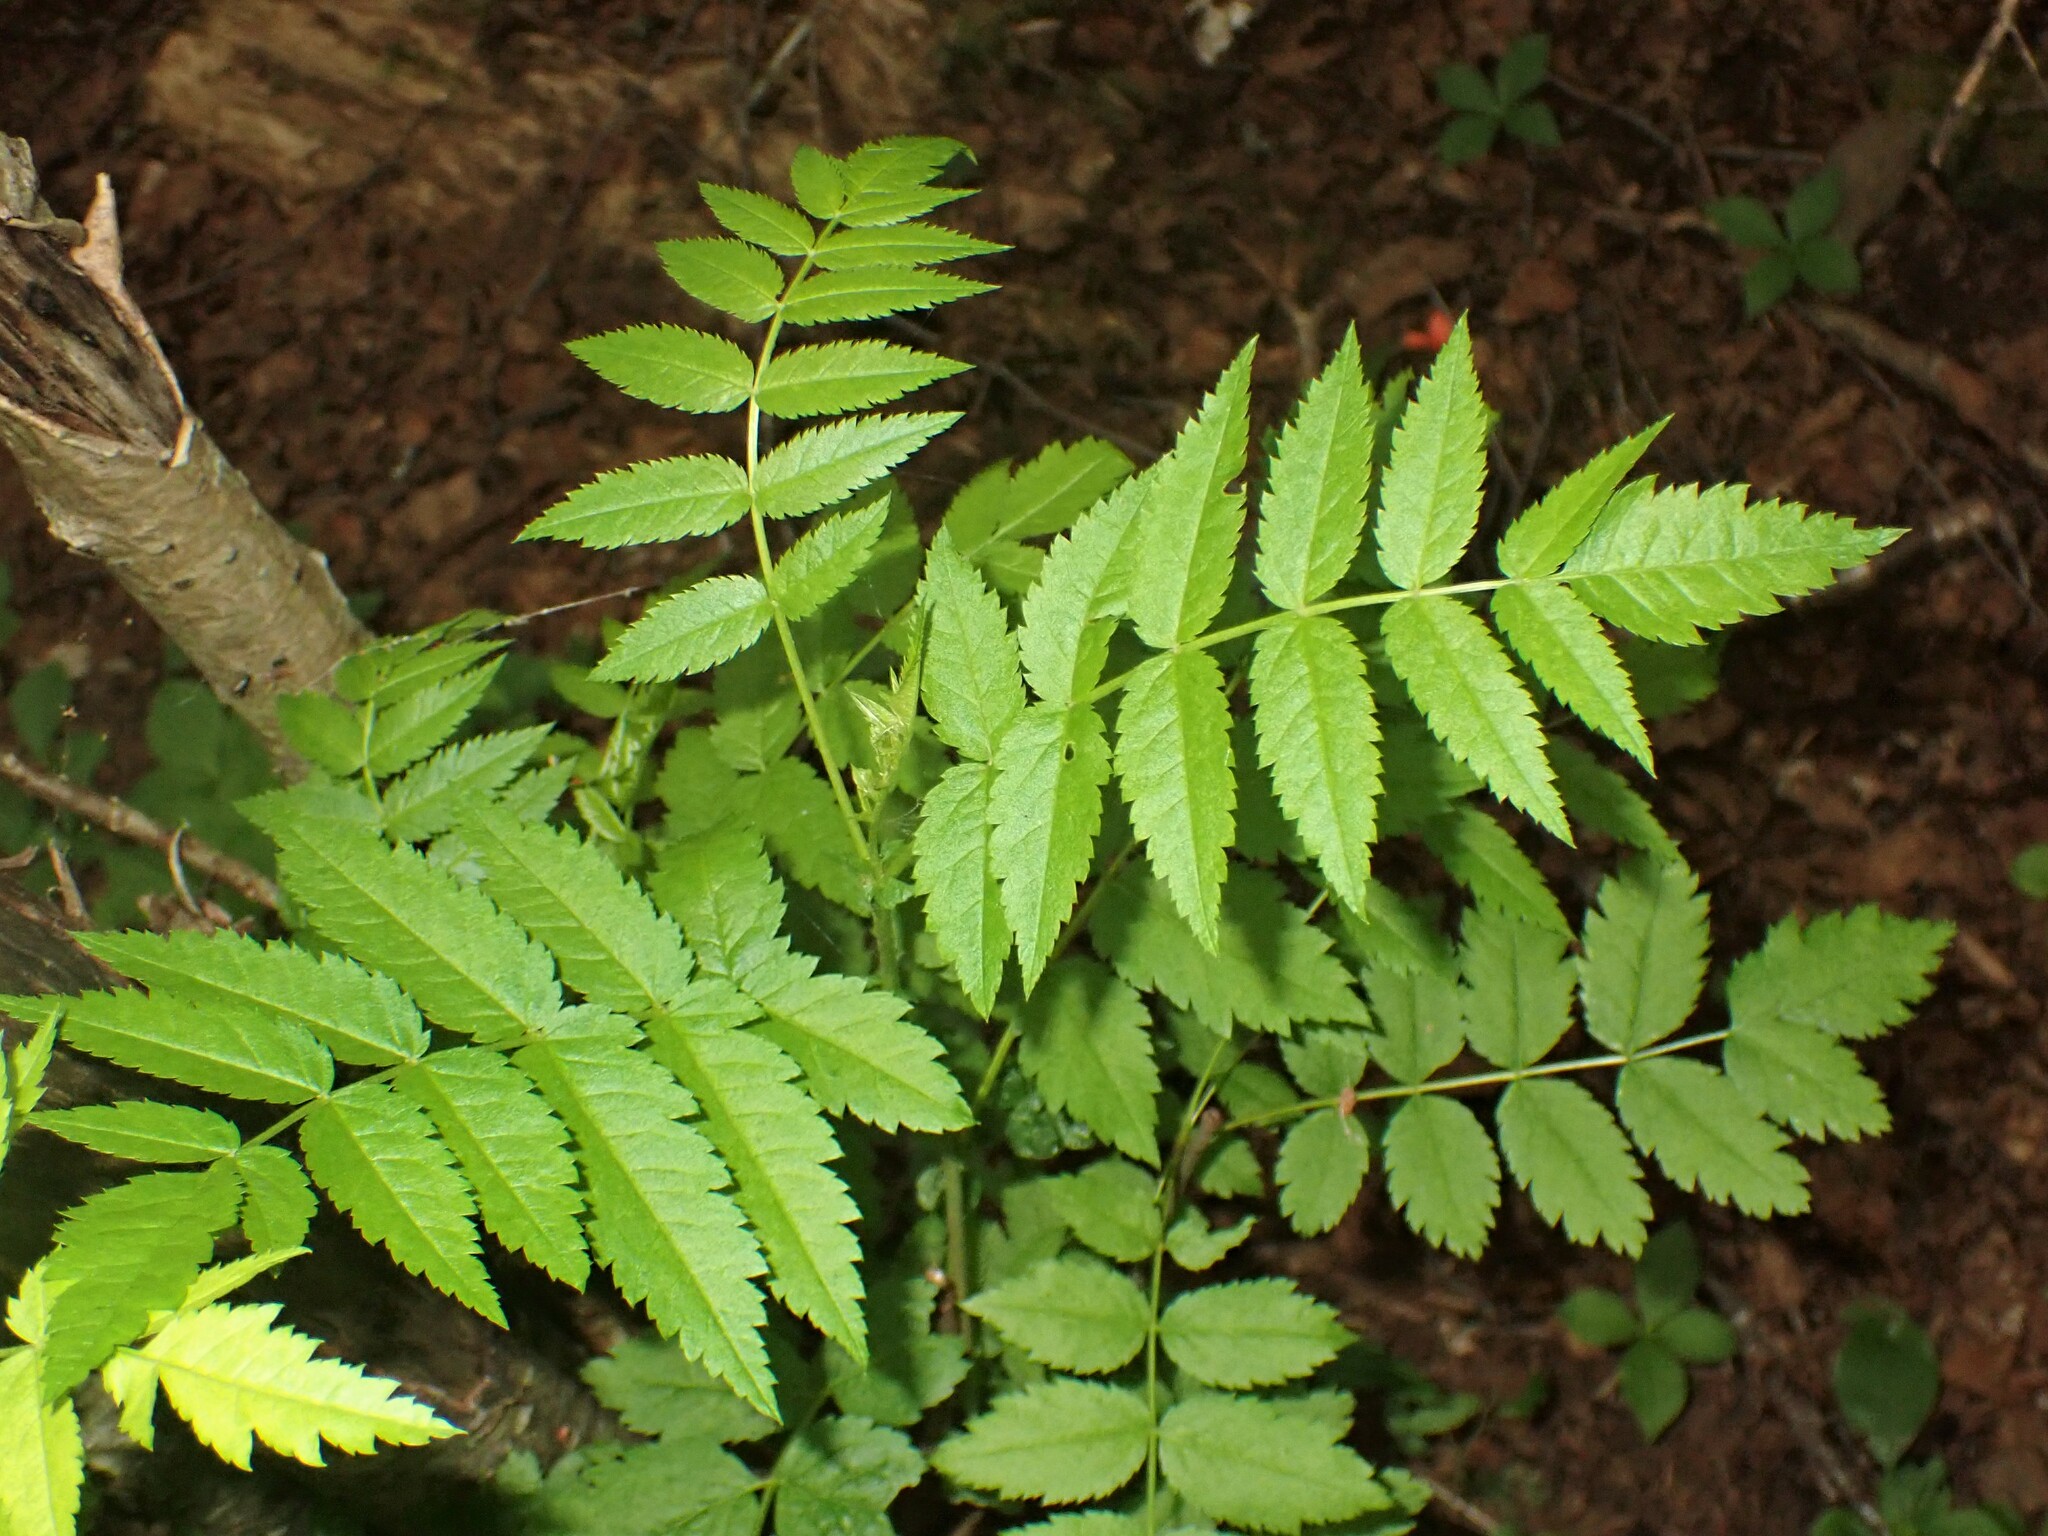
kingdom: Plantae
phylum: Tracheophyta
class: Magnoliopsida
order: Rosales
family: Rosaceae
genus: Sorbus
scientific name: Sorbus americana
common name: American mountain-ash
